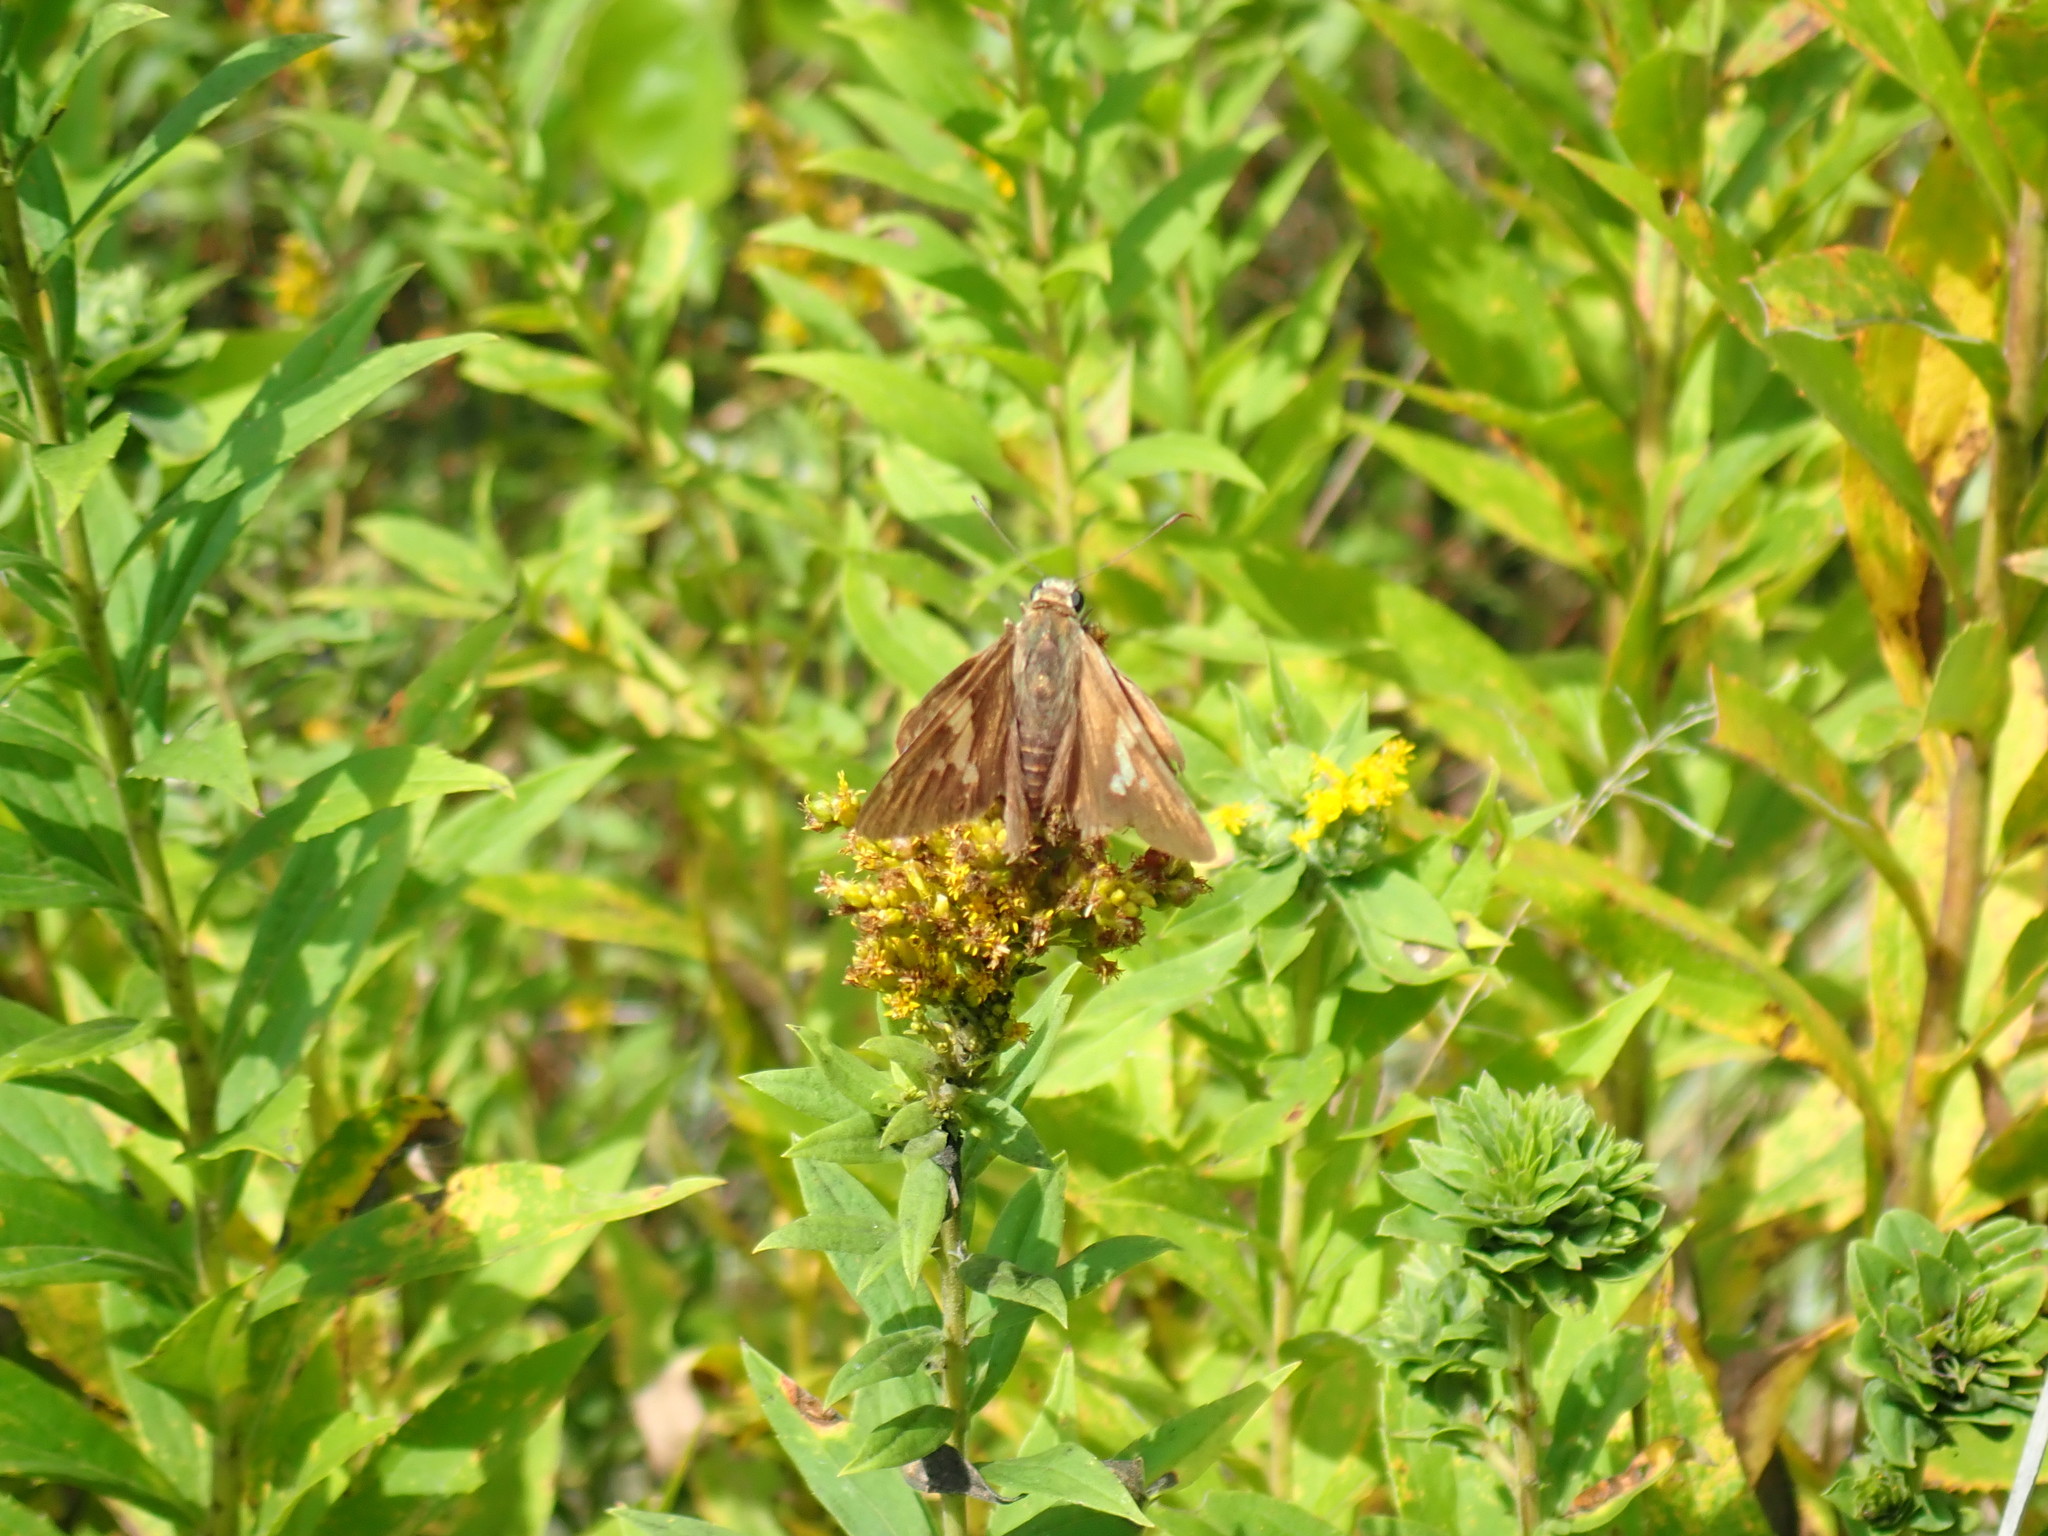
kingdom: Animalia
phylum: Arthropoda
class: Insecta
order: Lepidoptera
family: Hesperiidae
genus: Epargyreus
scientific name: Epargyreus clarus
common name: Silver-spotted skipper
